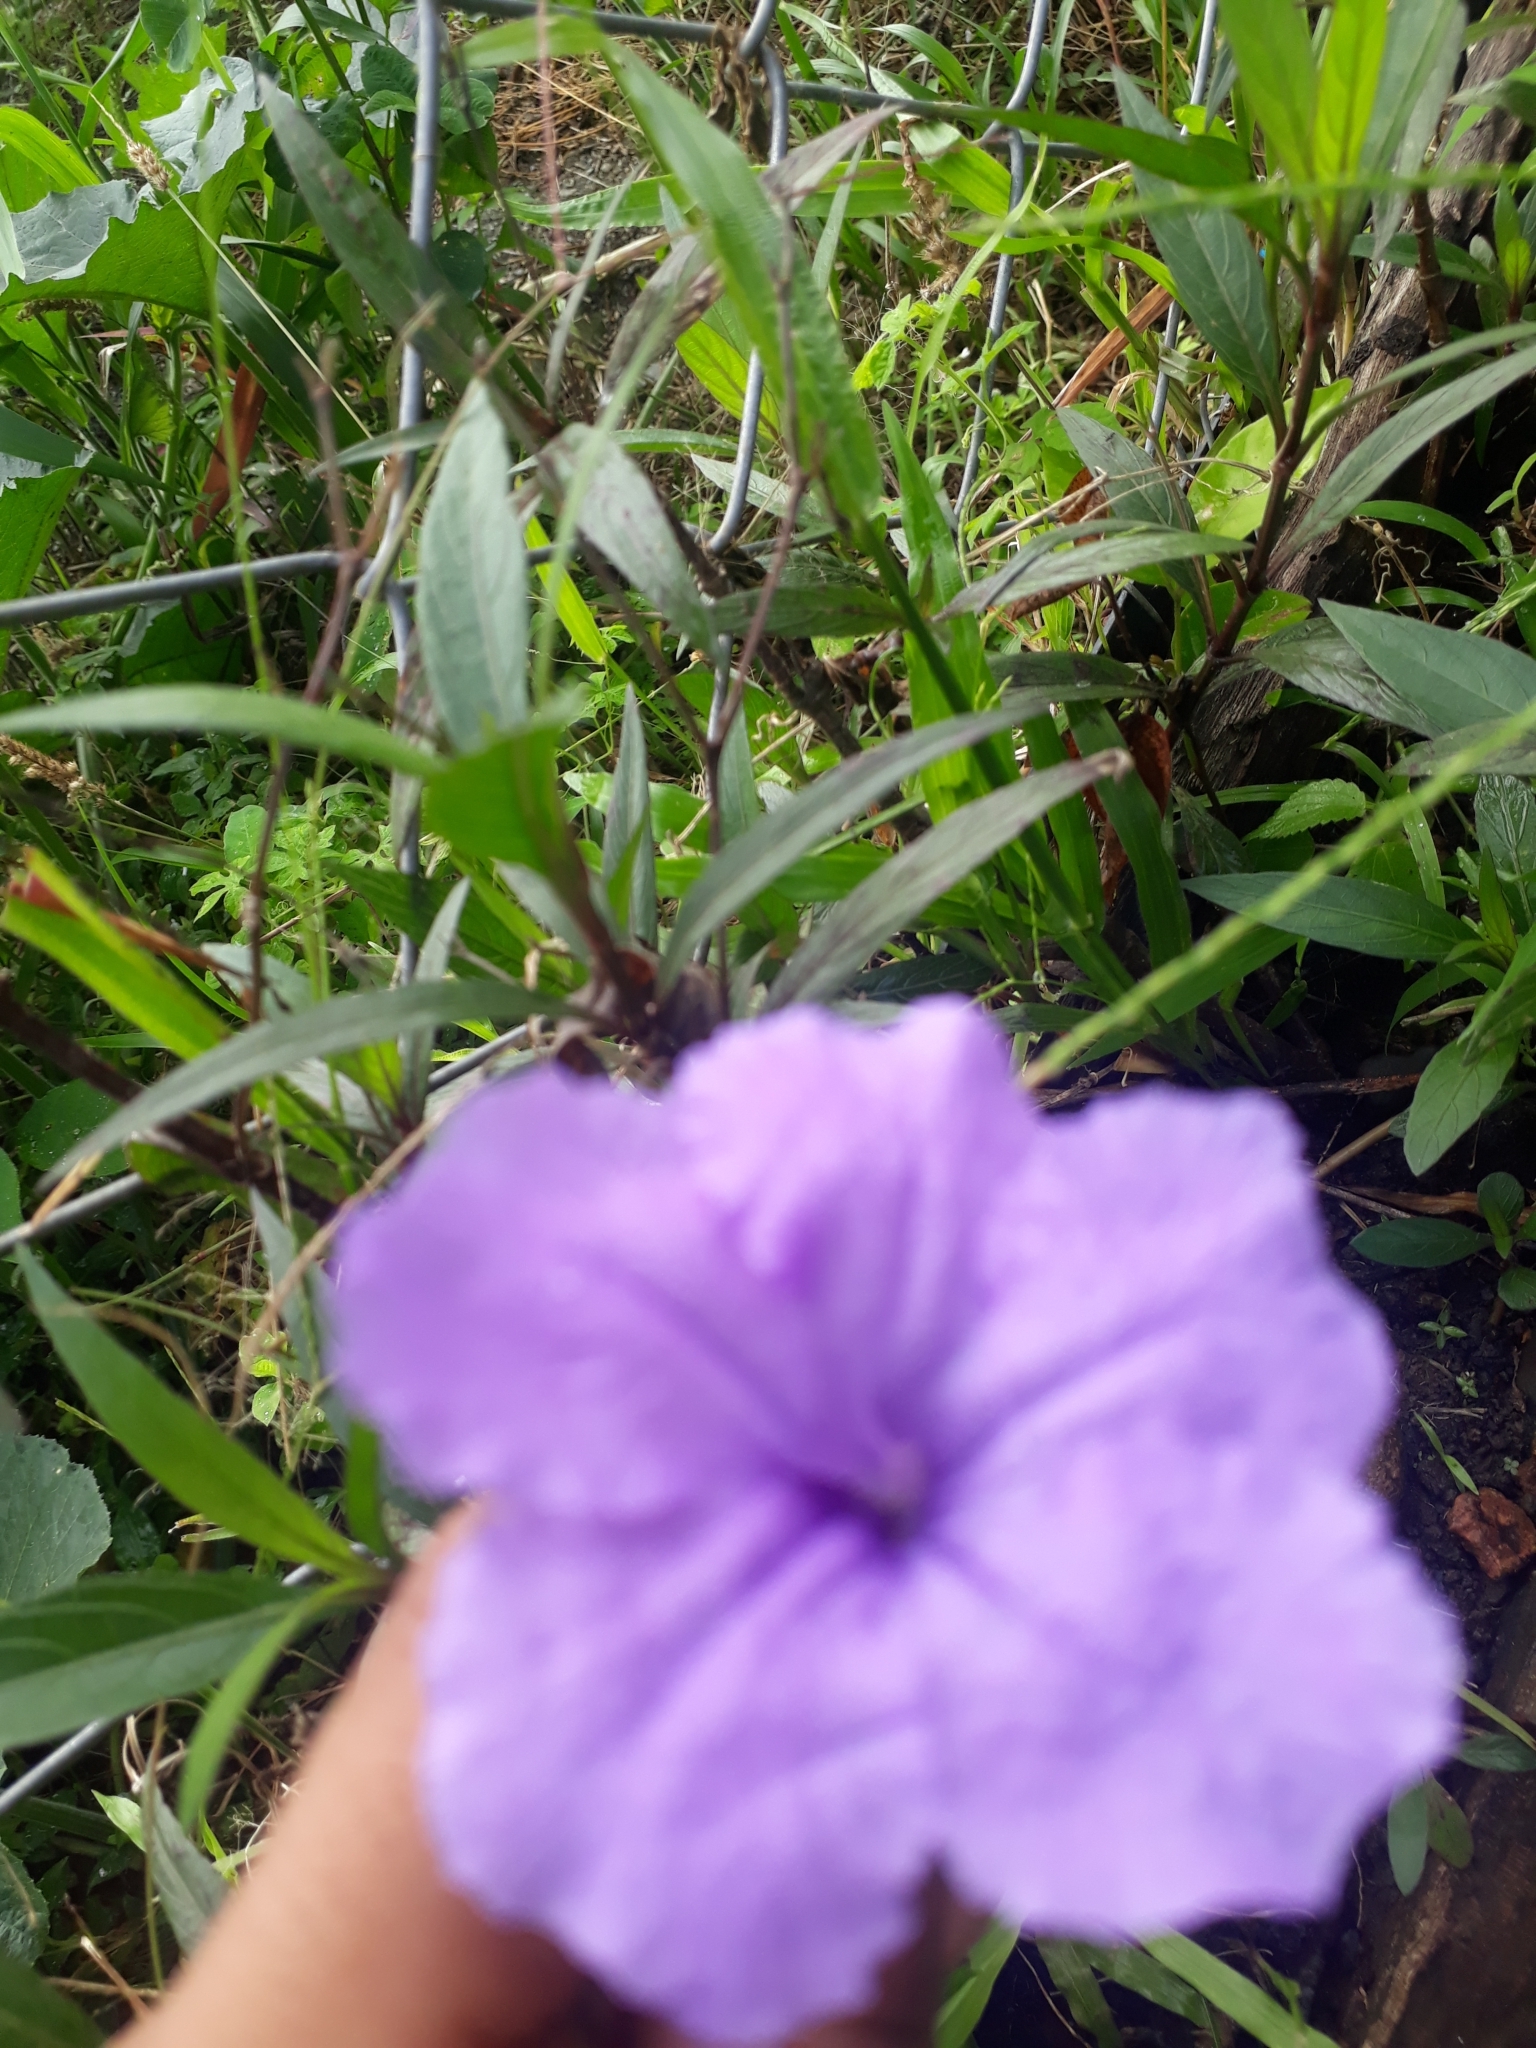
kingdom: Plantae
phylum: Tracheophyta
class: Magnoliopsida
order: Lamiales
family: Acanthaceae
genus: Ruellia
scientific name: Ruellia simplex
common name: Softseed wild petunia
